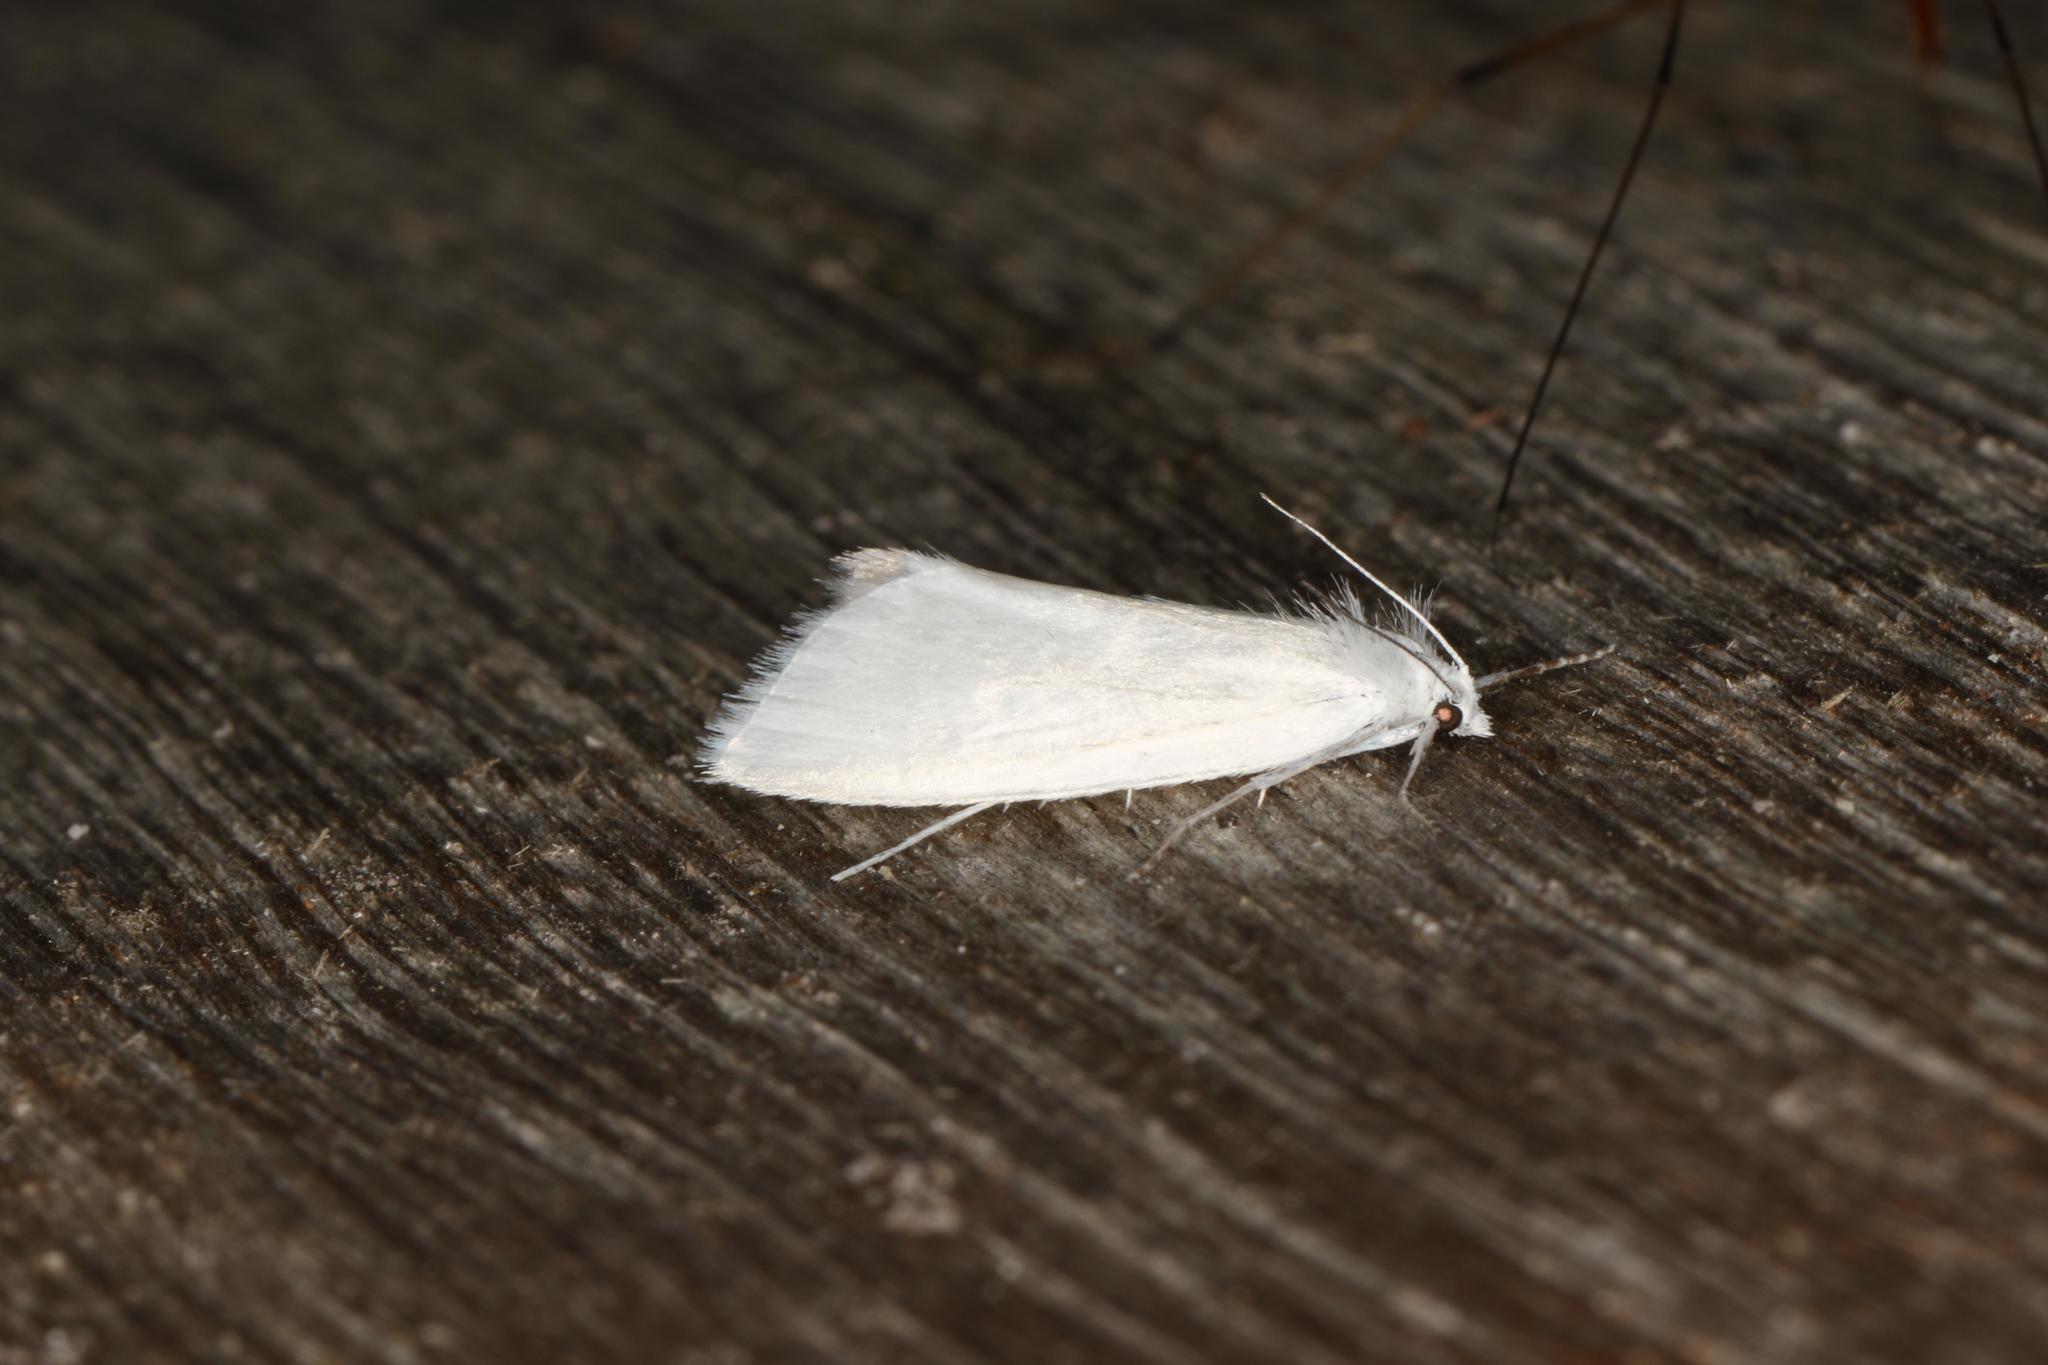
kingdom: Animalia
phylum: Arthropoda
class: Insecta
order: Lepidoptera
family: Crambidae
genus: Tipanaea
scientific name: Tipanaea patulella
